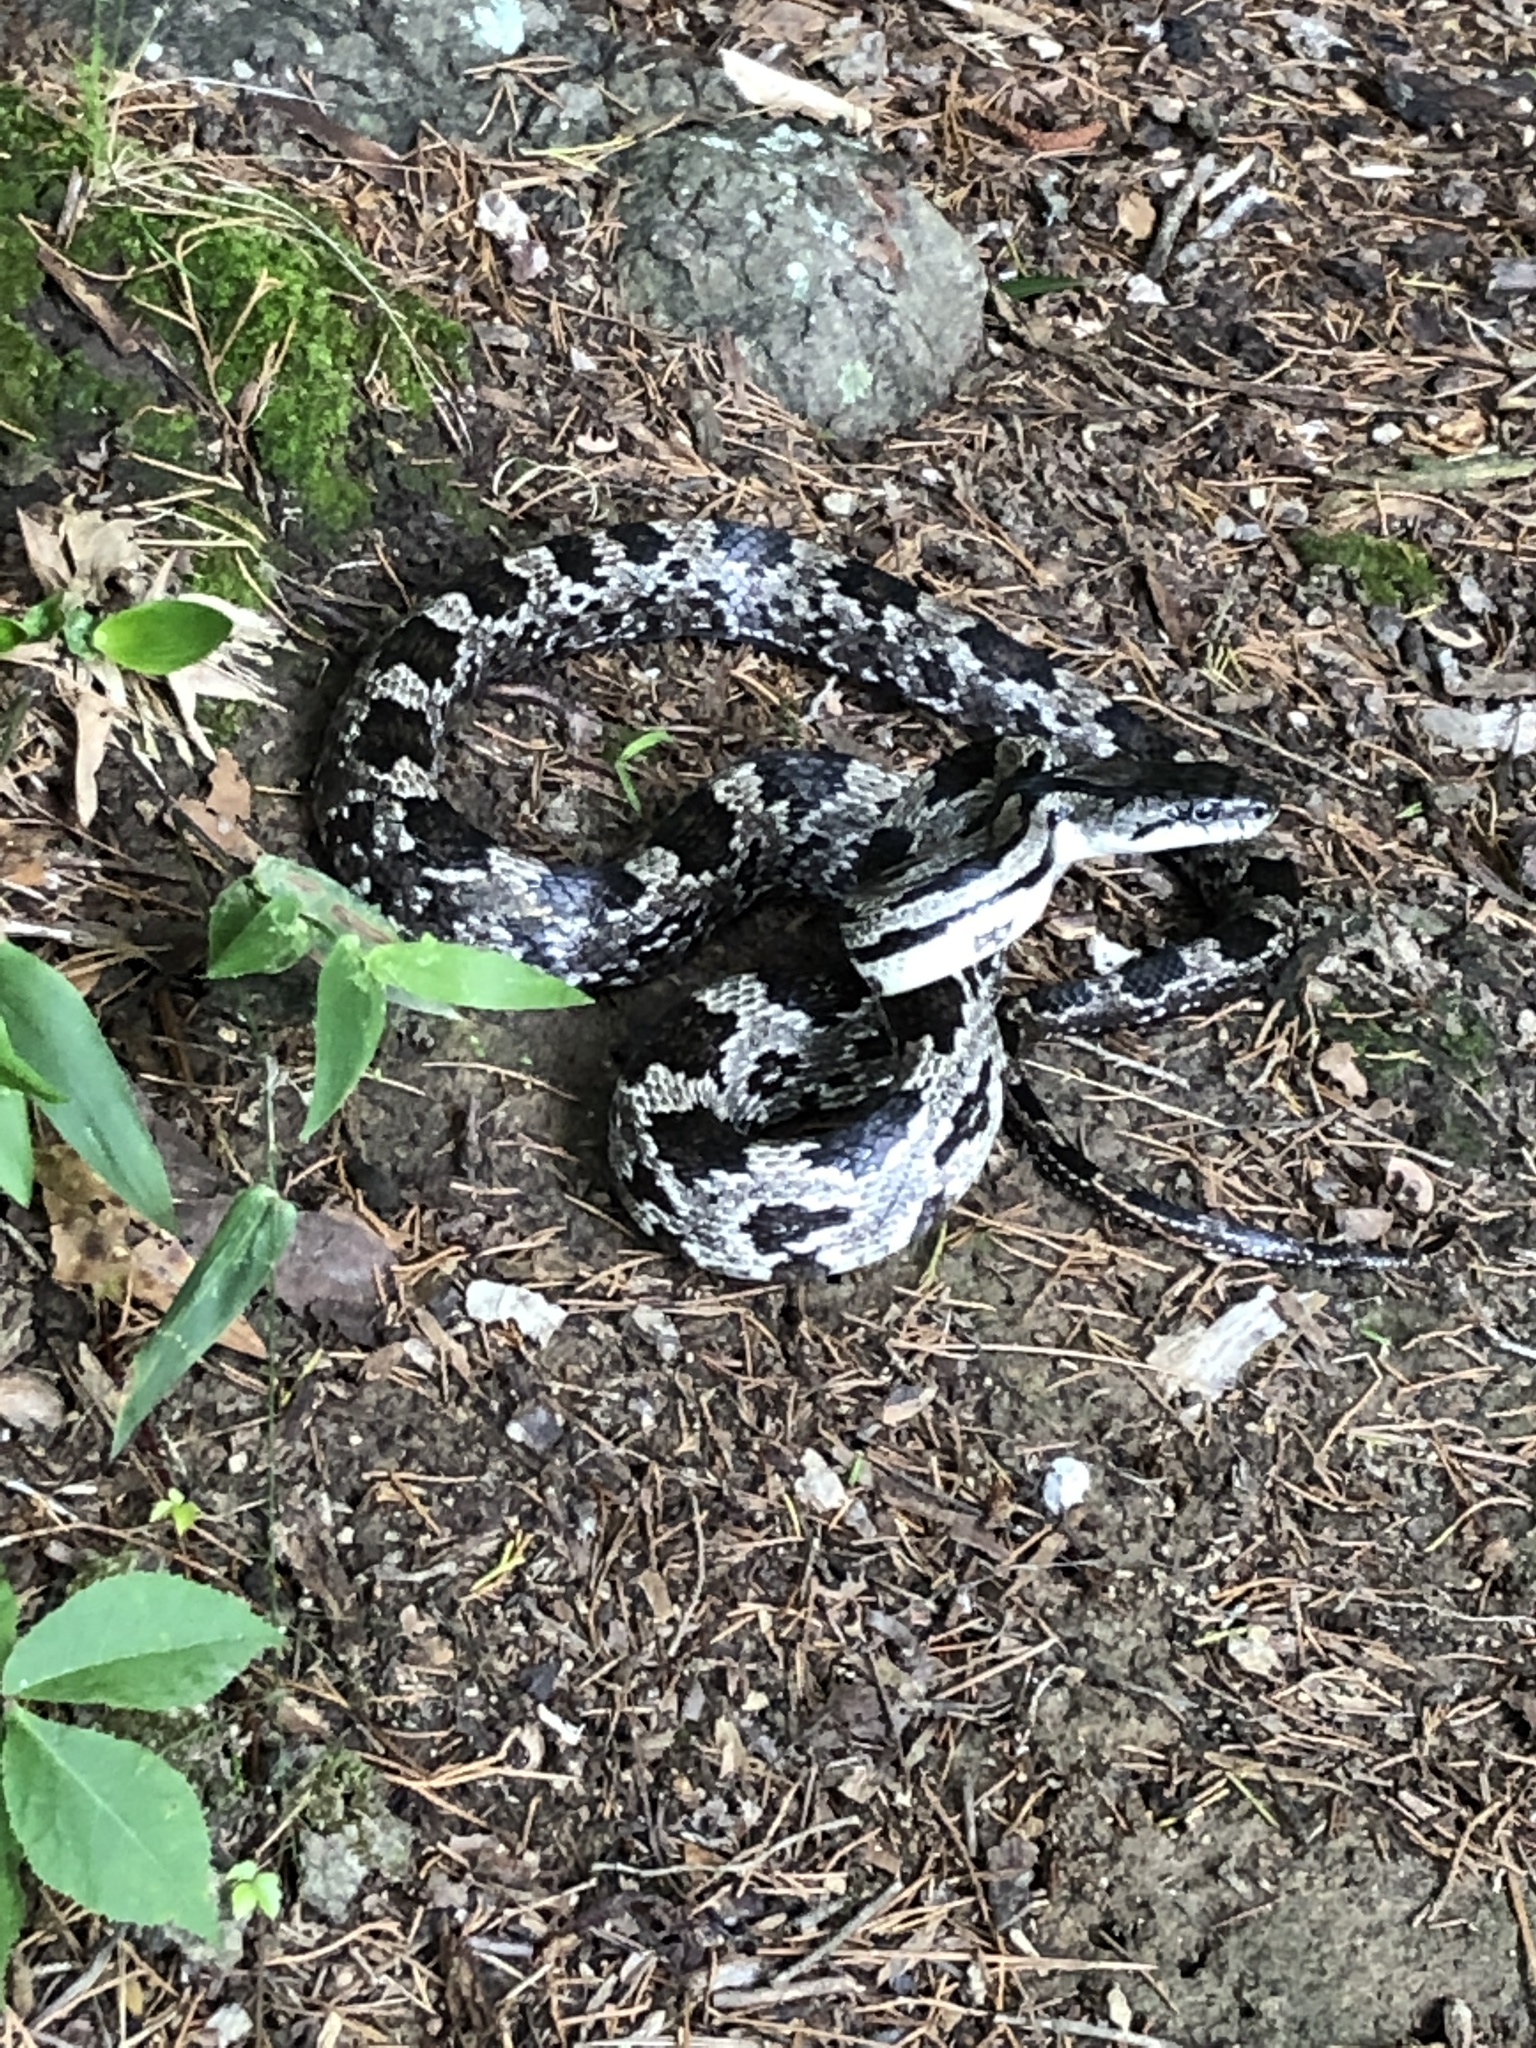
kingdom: Animalia
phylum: Chordata
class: Squamata
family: Colubridae
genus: Pantherophis
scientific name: Pantherophis spiloides
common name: Gray rat snake
